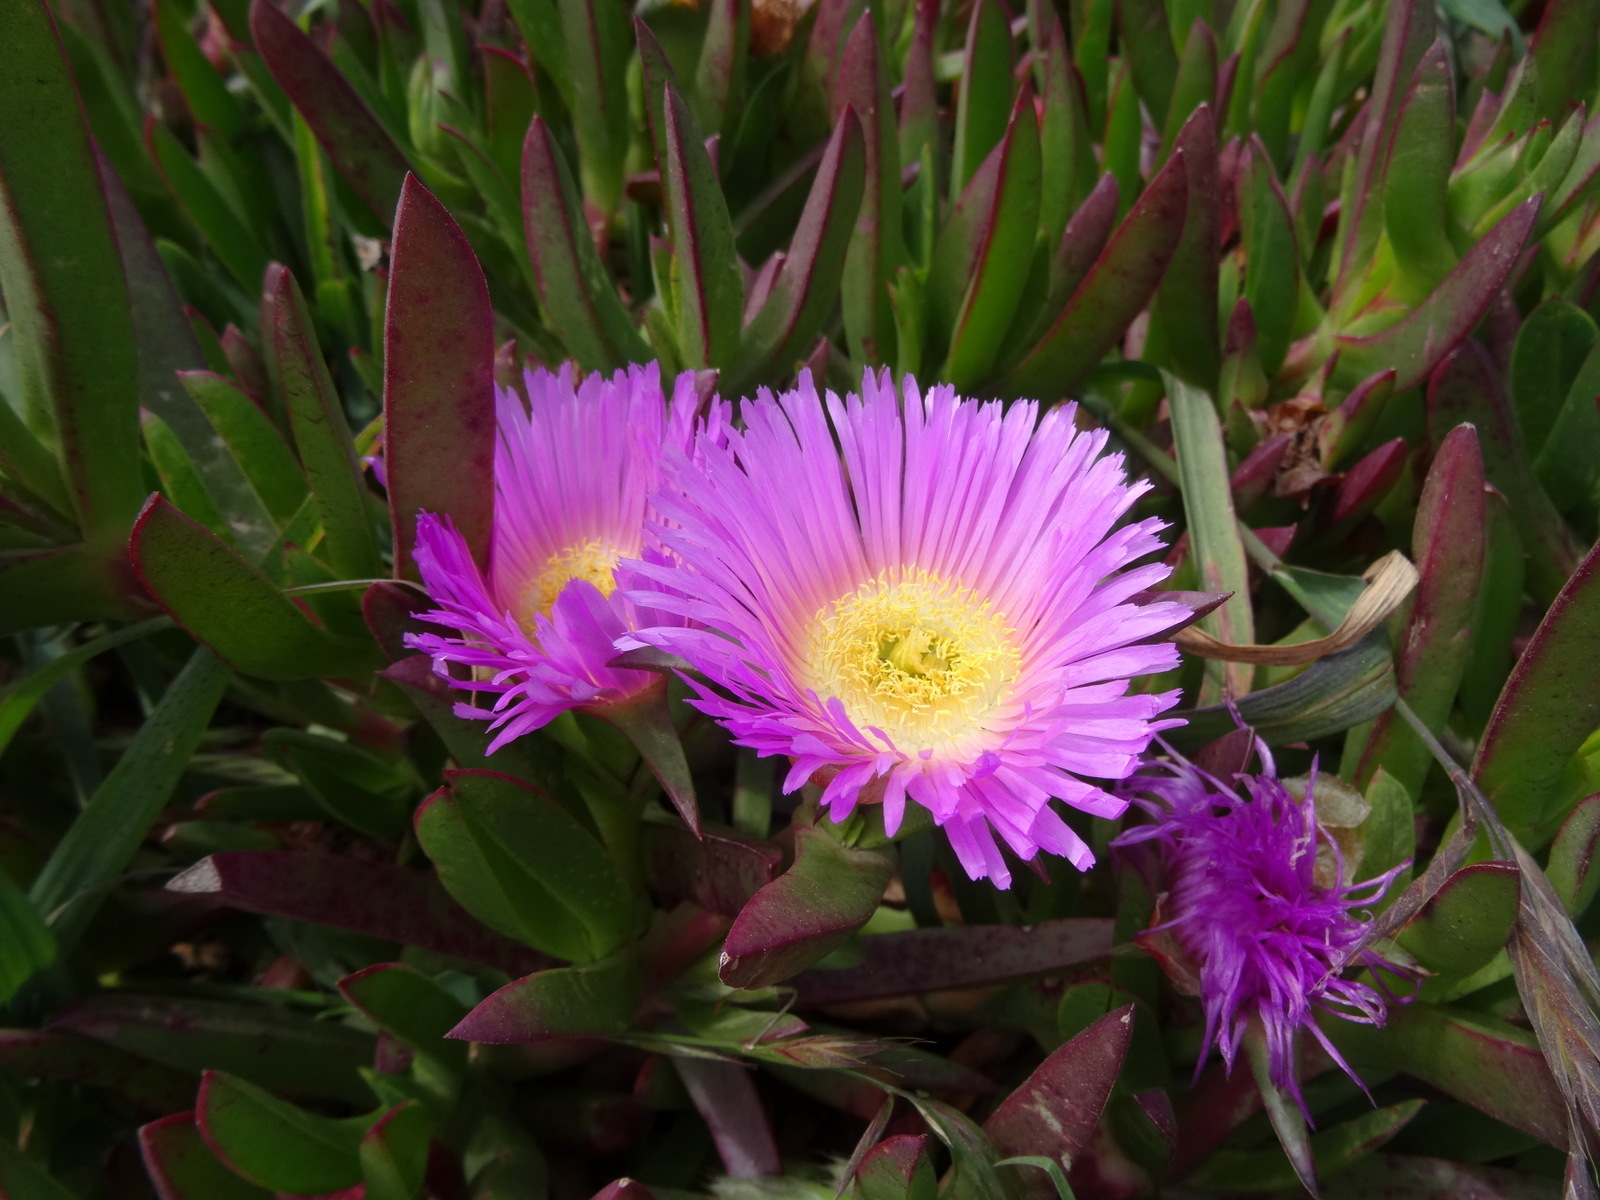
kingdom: Plantae
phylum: Tracheophyta
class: Magnoliopsida
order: Caryophyllales
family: Aizoaceae
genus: Carpobrotus
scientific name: Carpobrotus edulis
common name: Hottentot-fig
